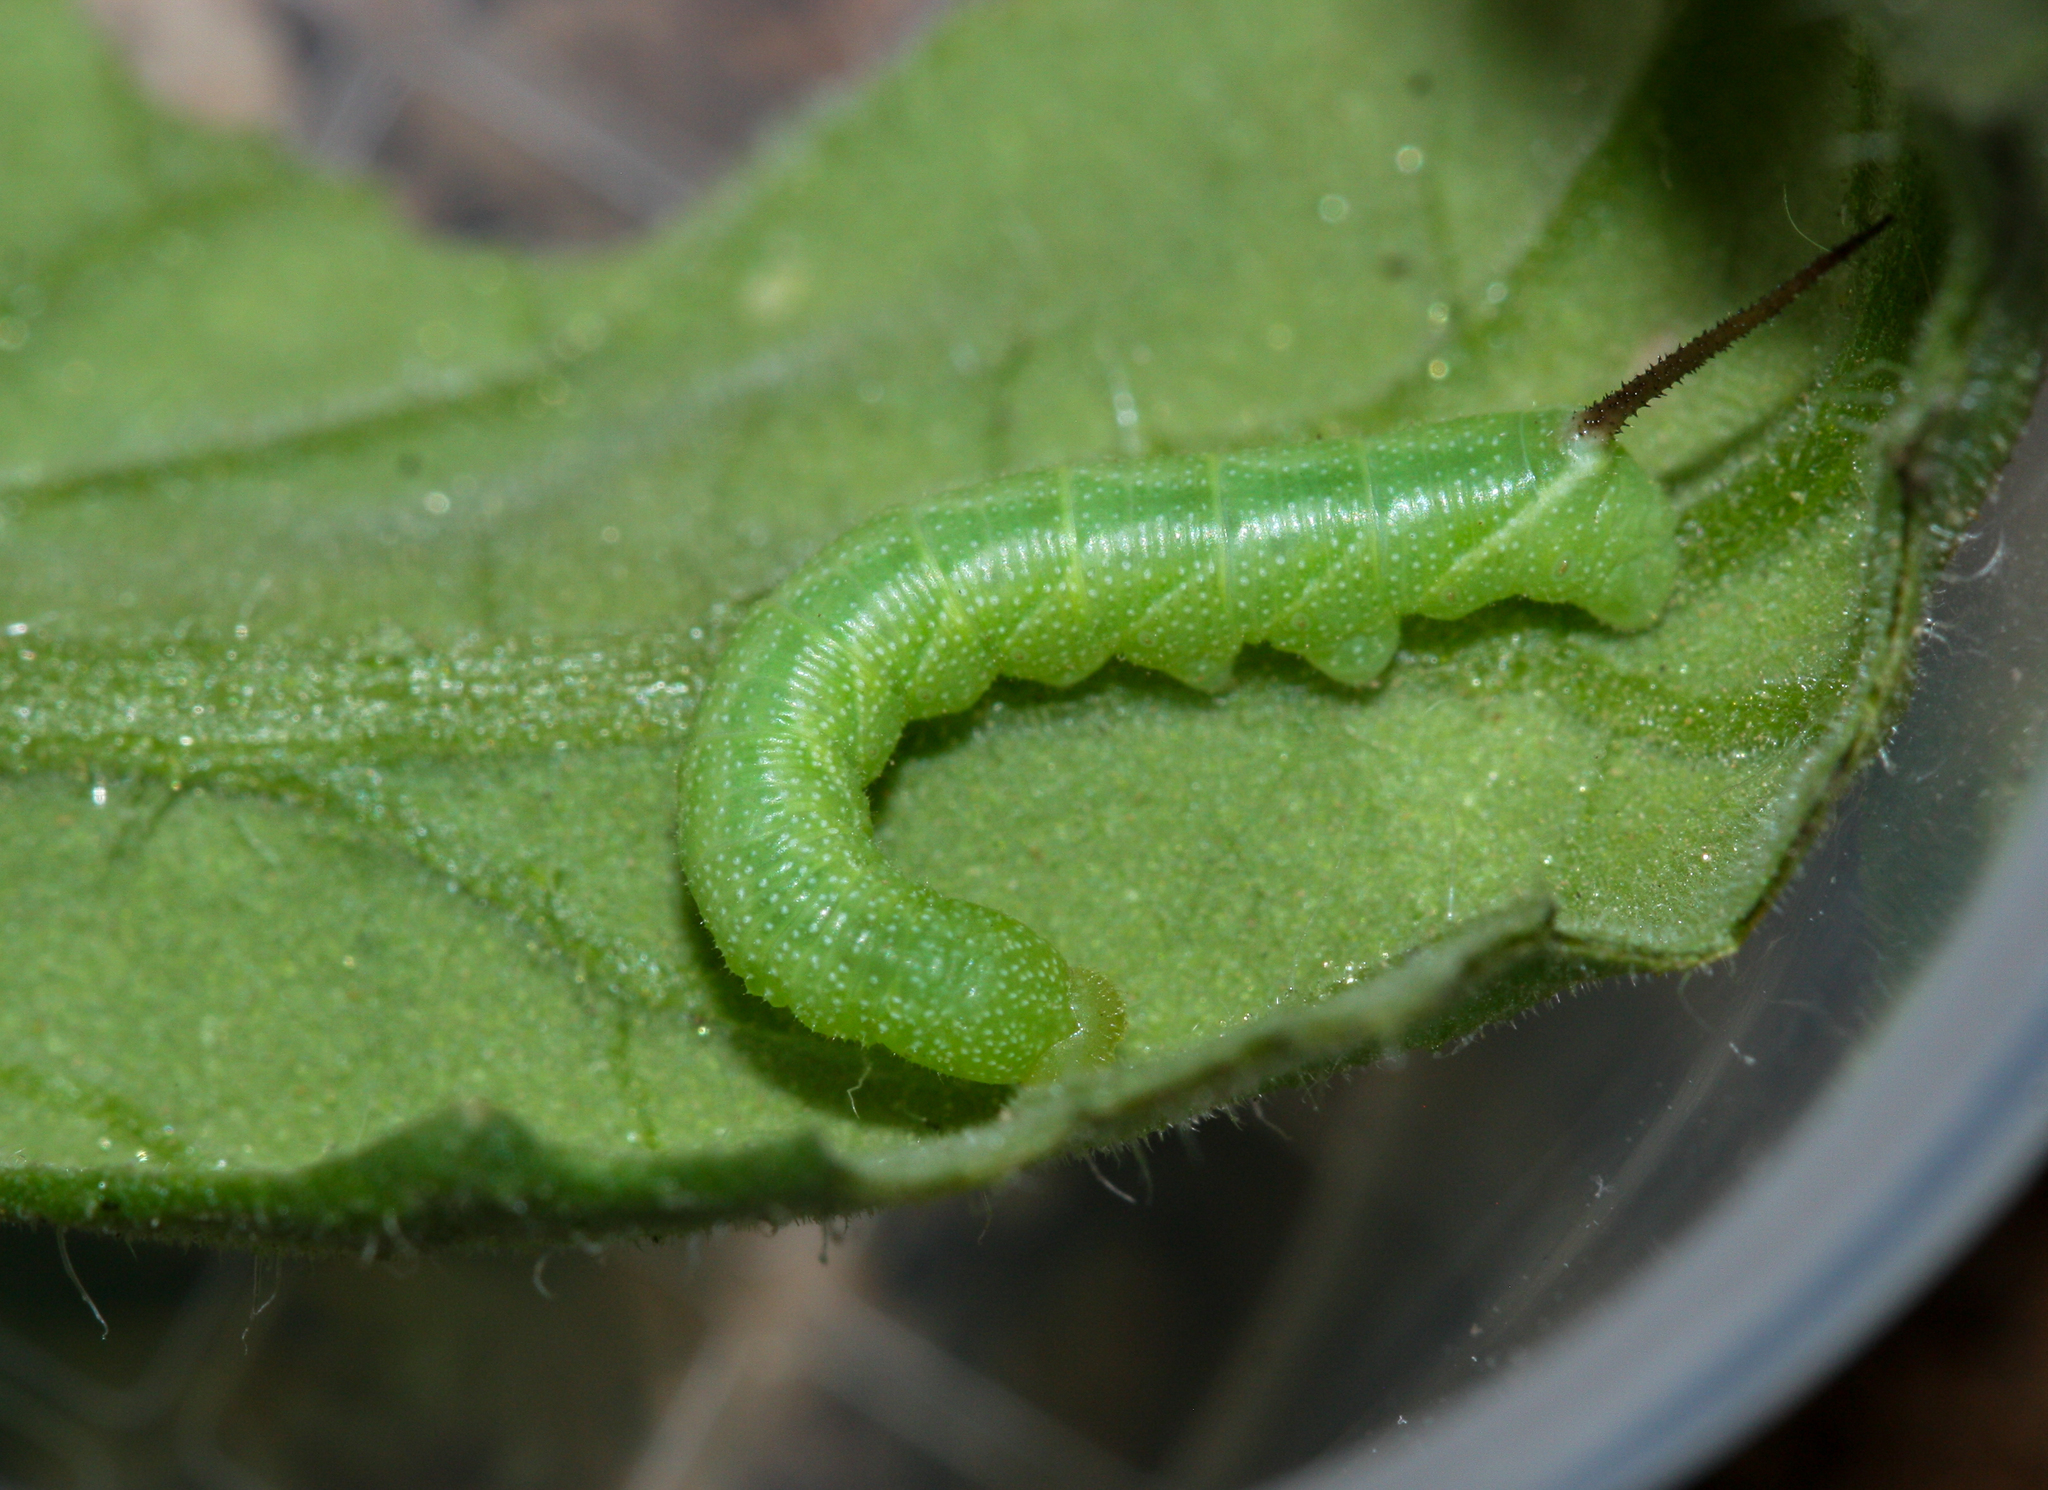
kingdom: Animalia
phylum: Arthropoda
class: Insecta
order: Lepidoptera
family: Sphingidae
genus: Manduca
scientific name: Manduca sexta
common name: Carolina sphinx
